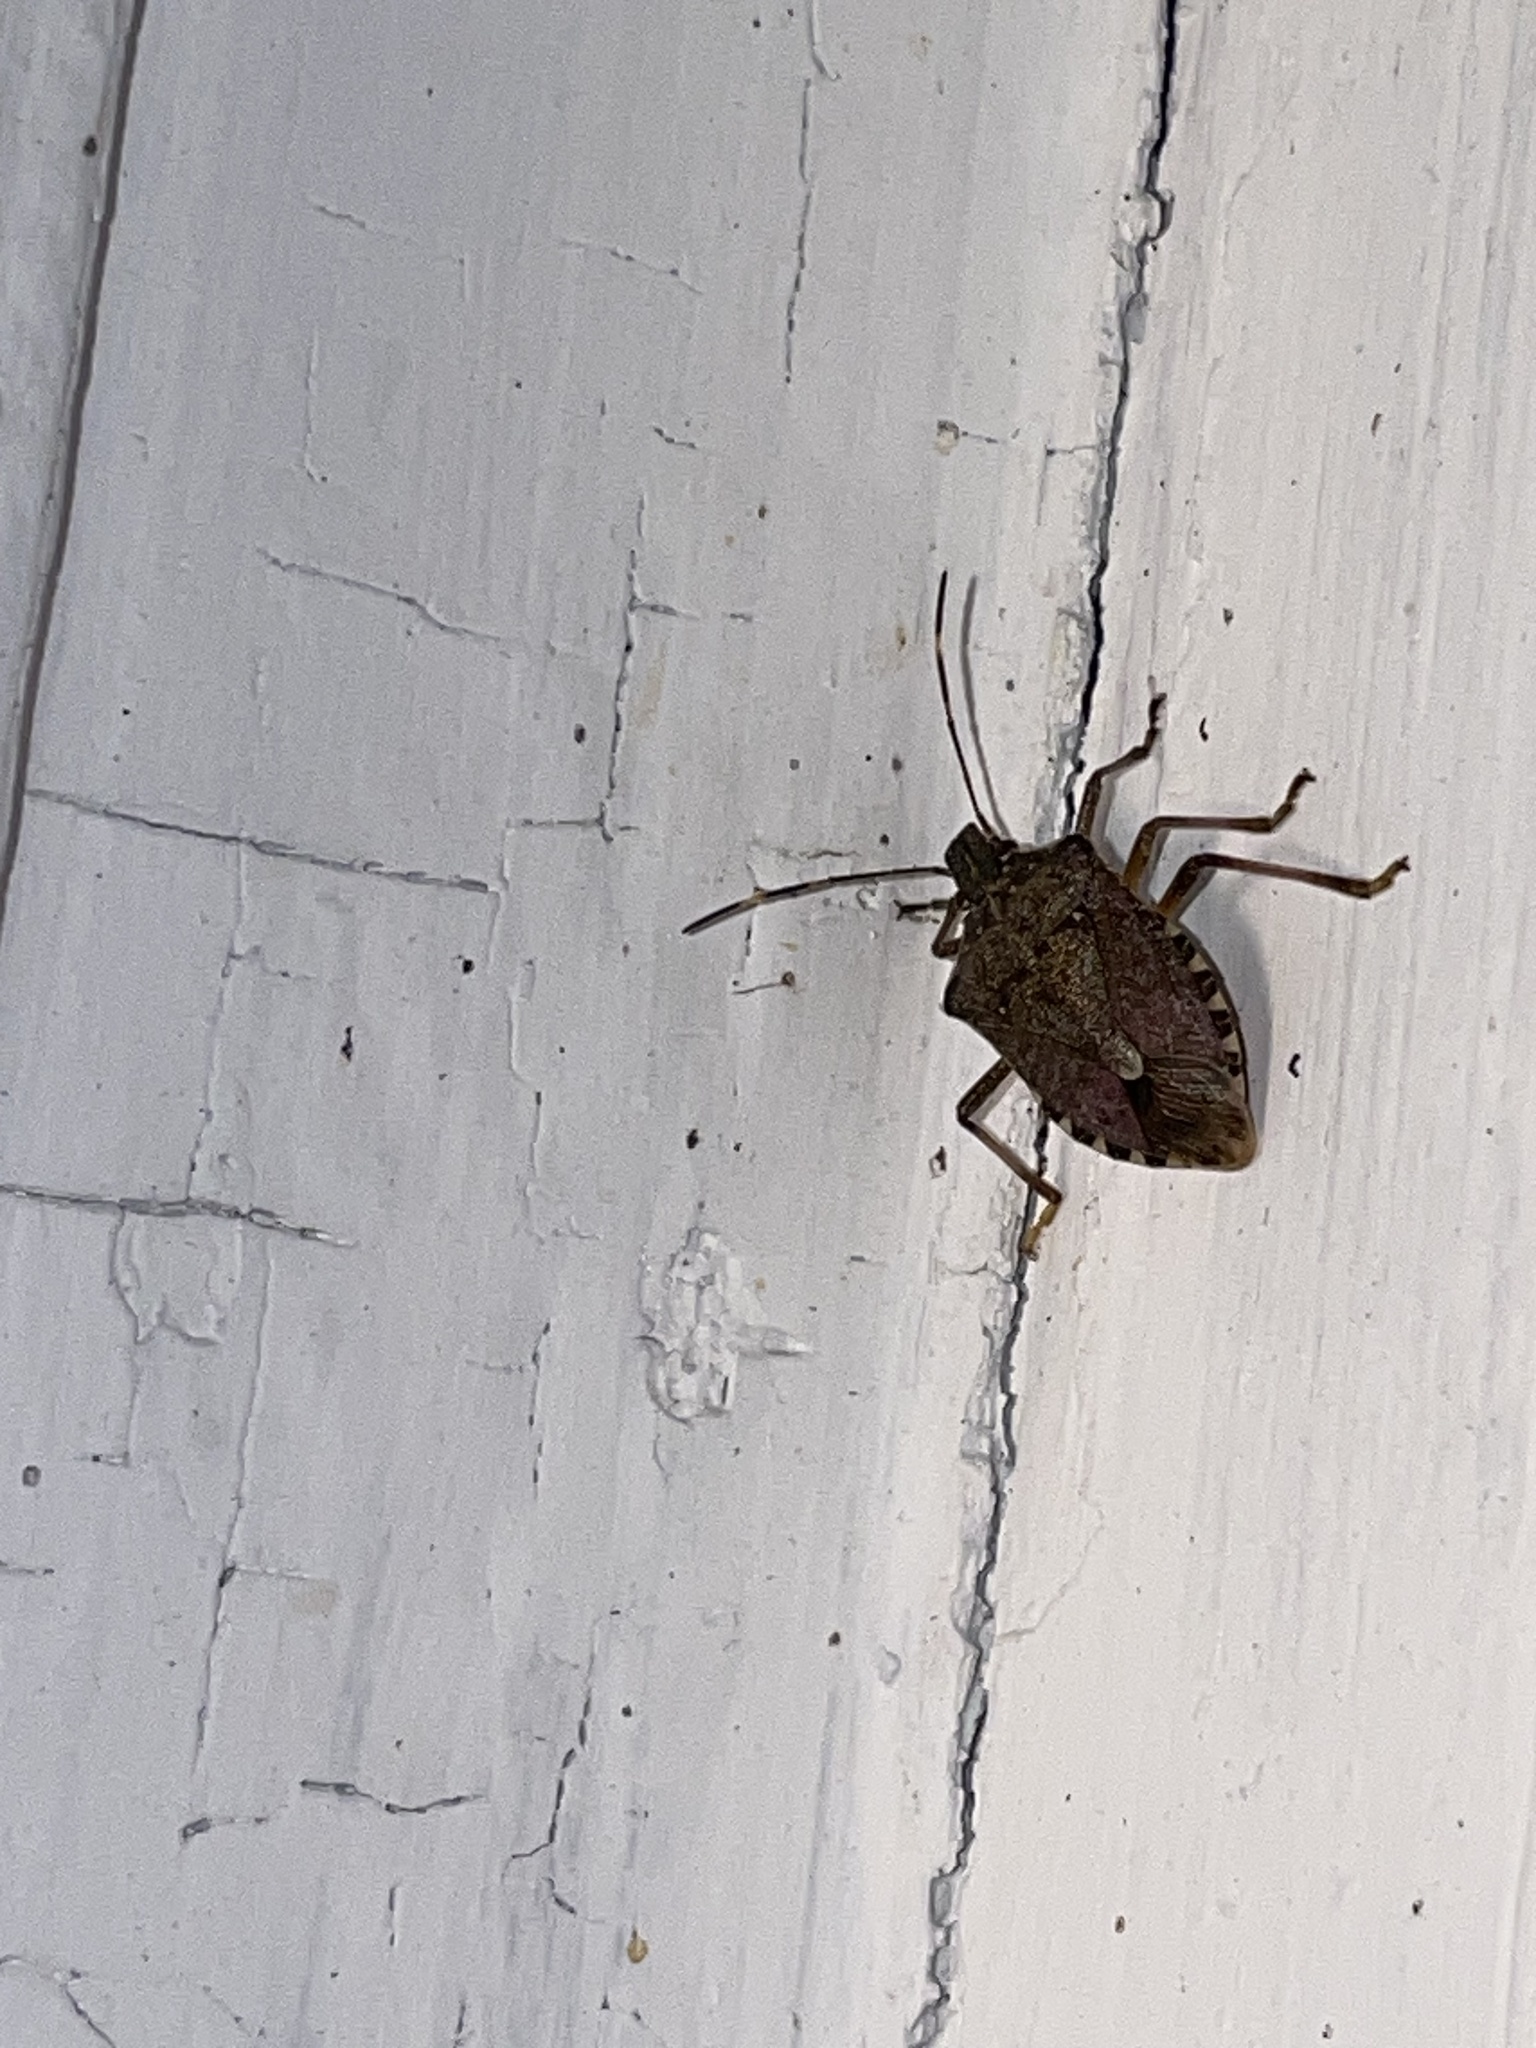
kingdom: Animalia
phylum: Arthropoda
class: Insecta
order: Hemiptera
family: Pentatomidae
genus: Halyomorpha
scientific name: Halyomorpha halys
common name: Brown marmorated stink bug
